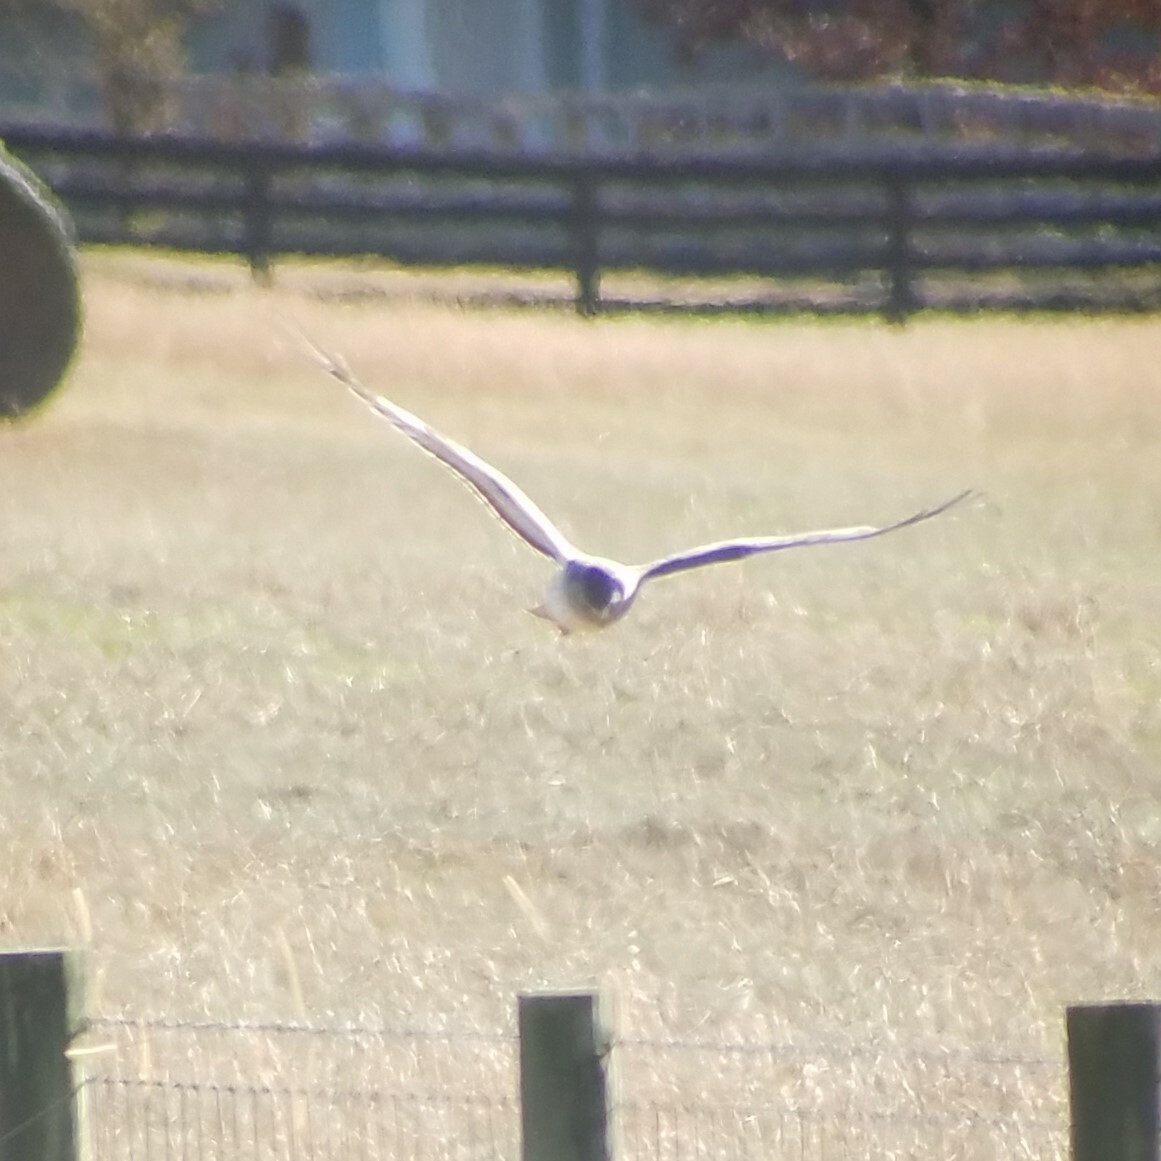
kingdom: Animalia
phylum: Chordata
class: Aves
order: Accipitriformes
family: Accipitridae
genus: Circus
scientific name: Circus cyaneus
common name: Hen harrier
